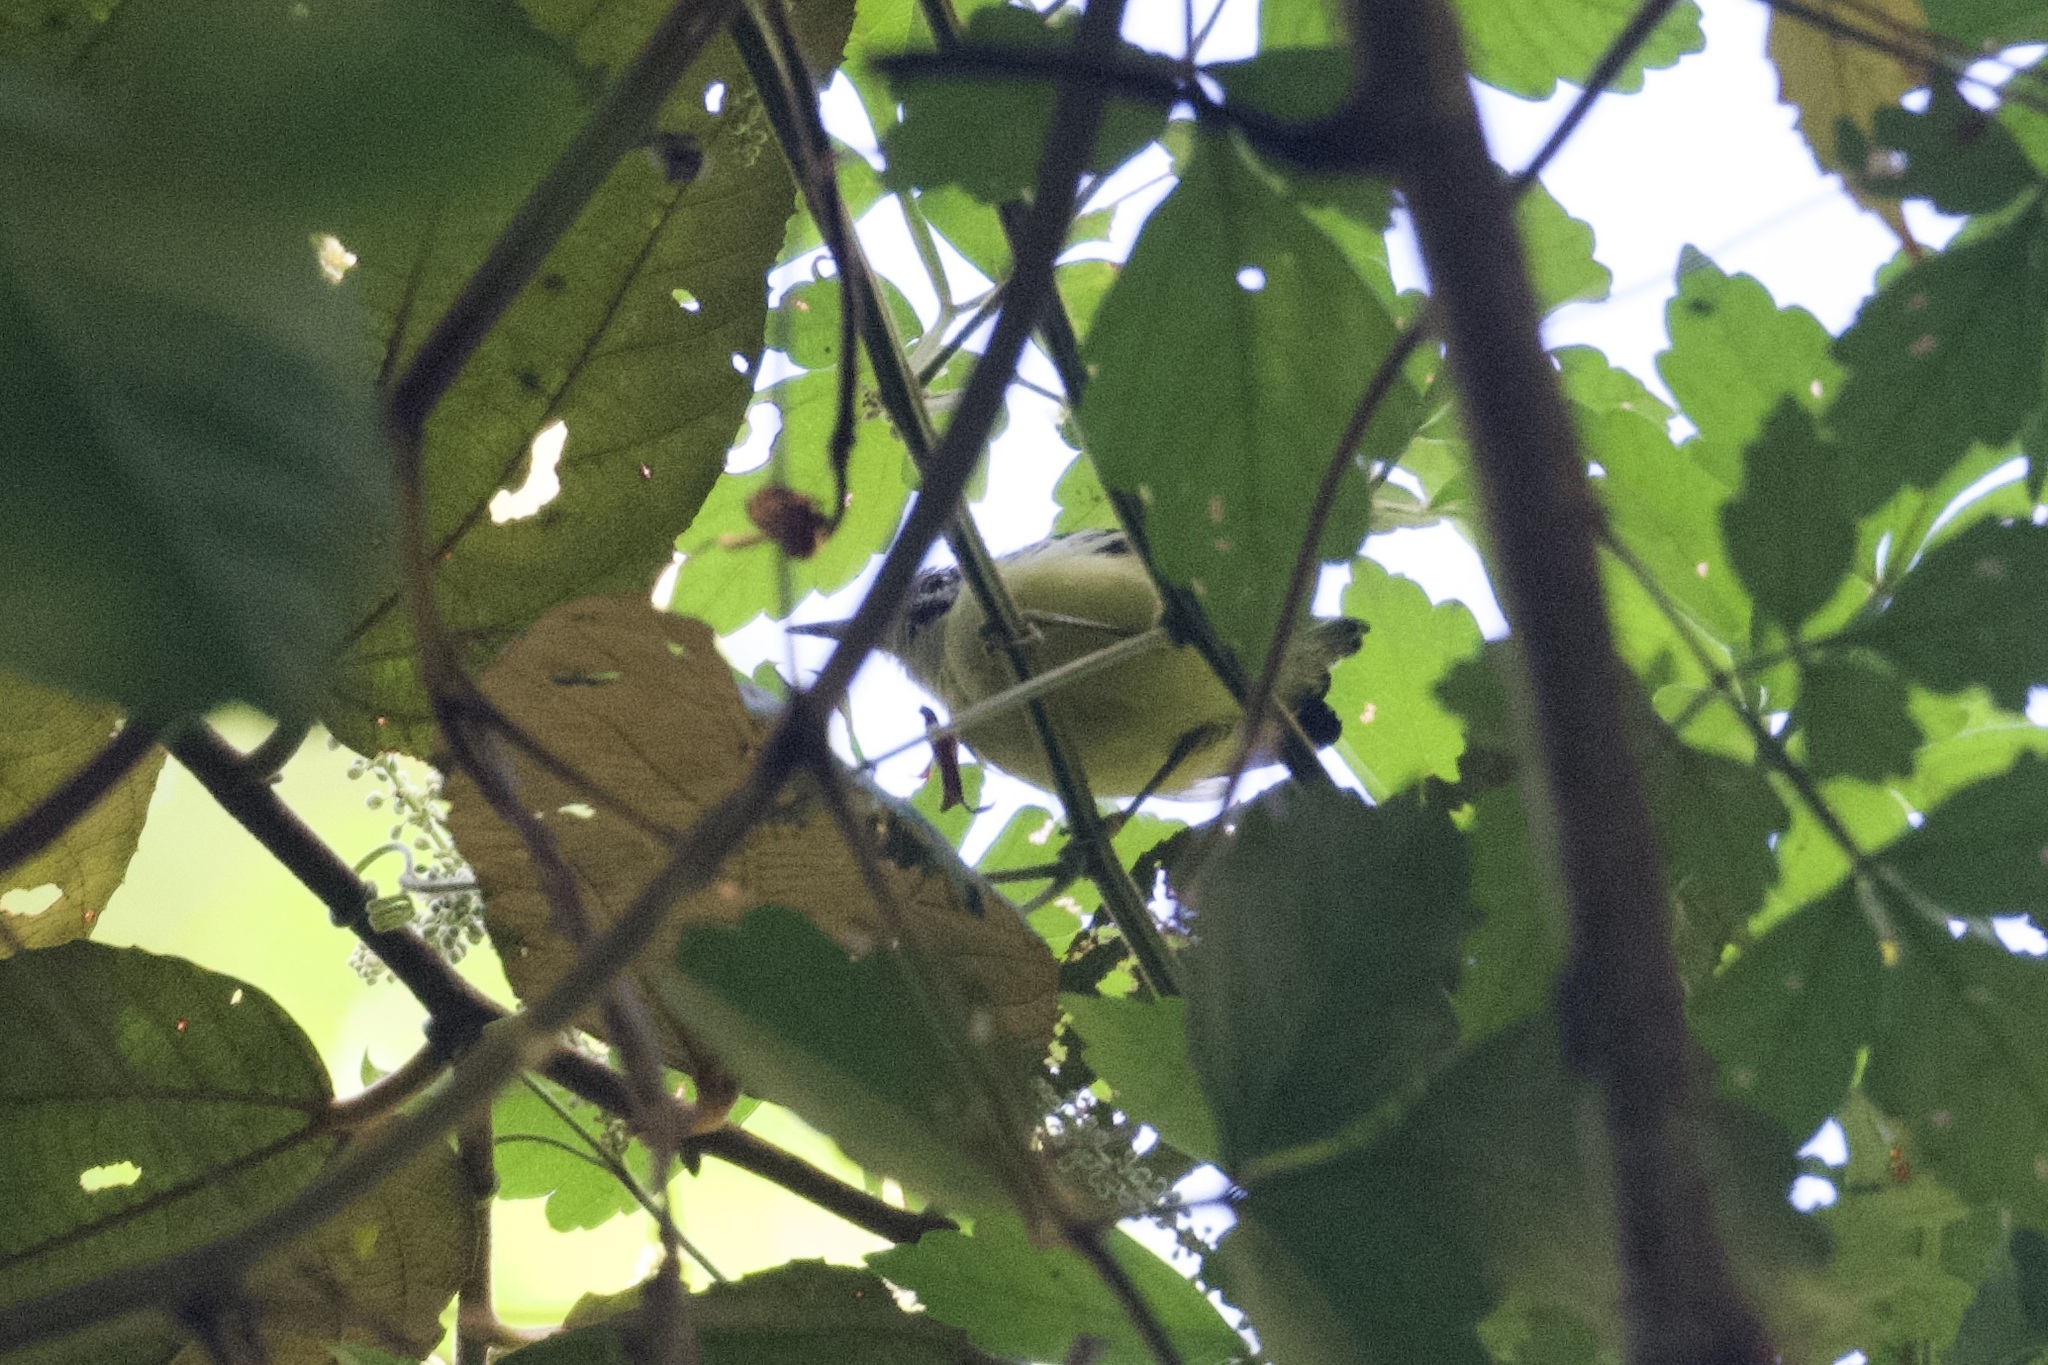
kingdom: Animalia
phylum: Chordata
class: Aves
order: Passeriformes
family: Thamnophilidae
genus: Myrmotherula
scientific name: Myrmotherula ignota
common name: Moustached antwren
